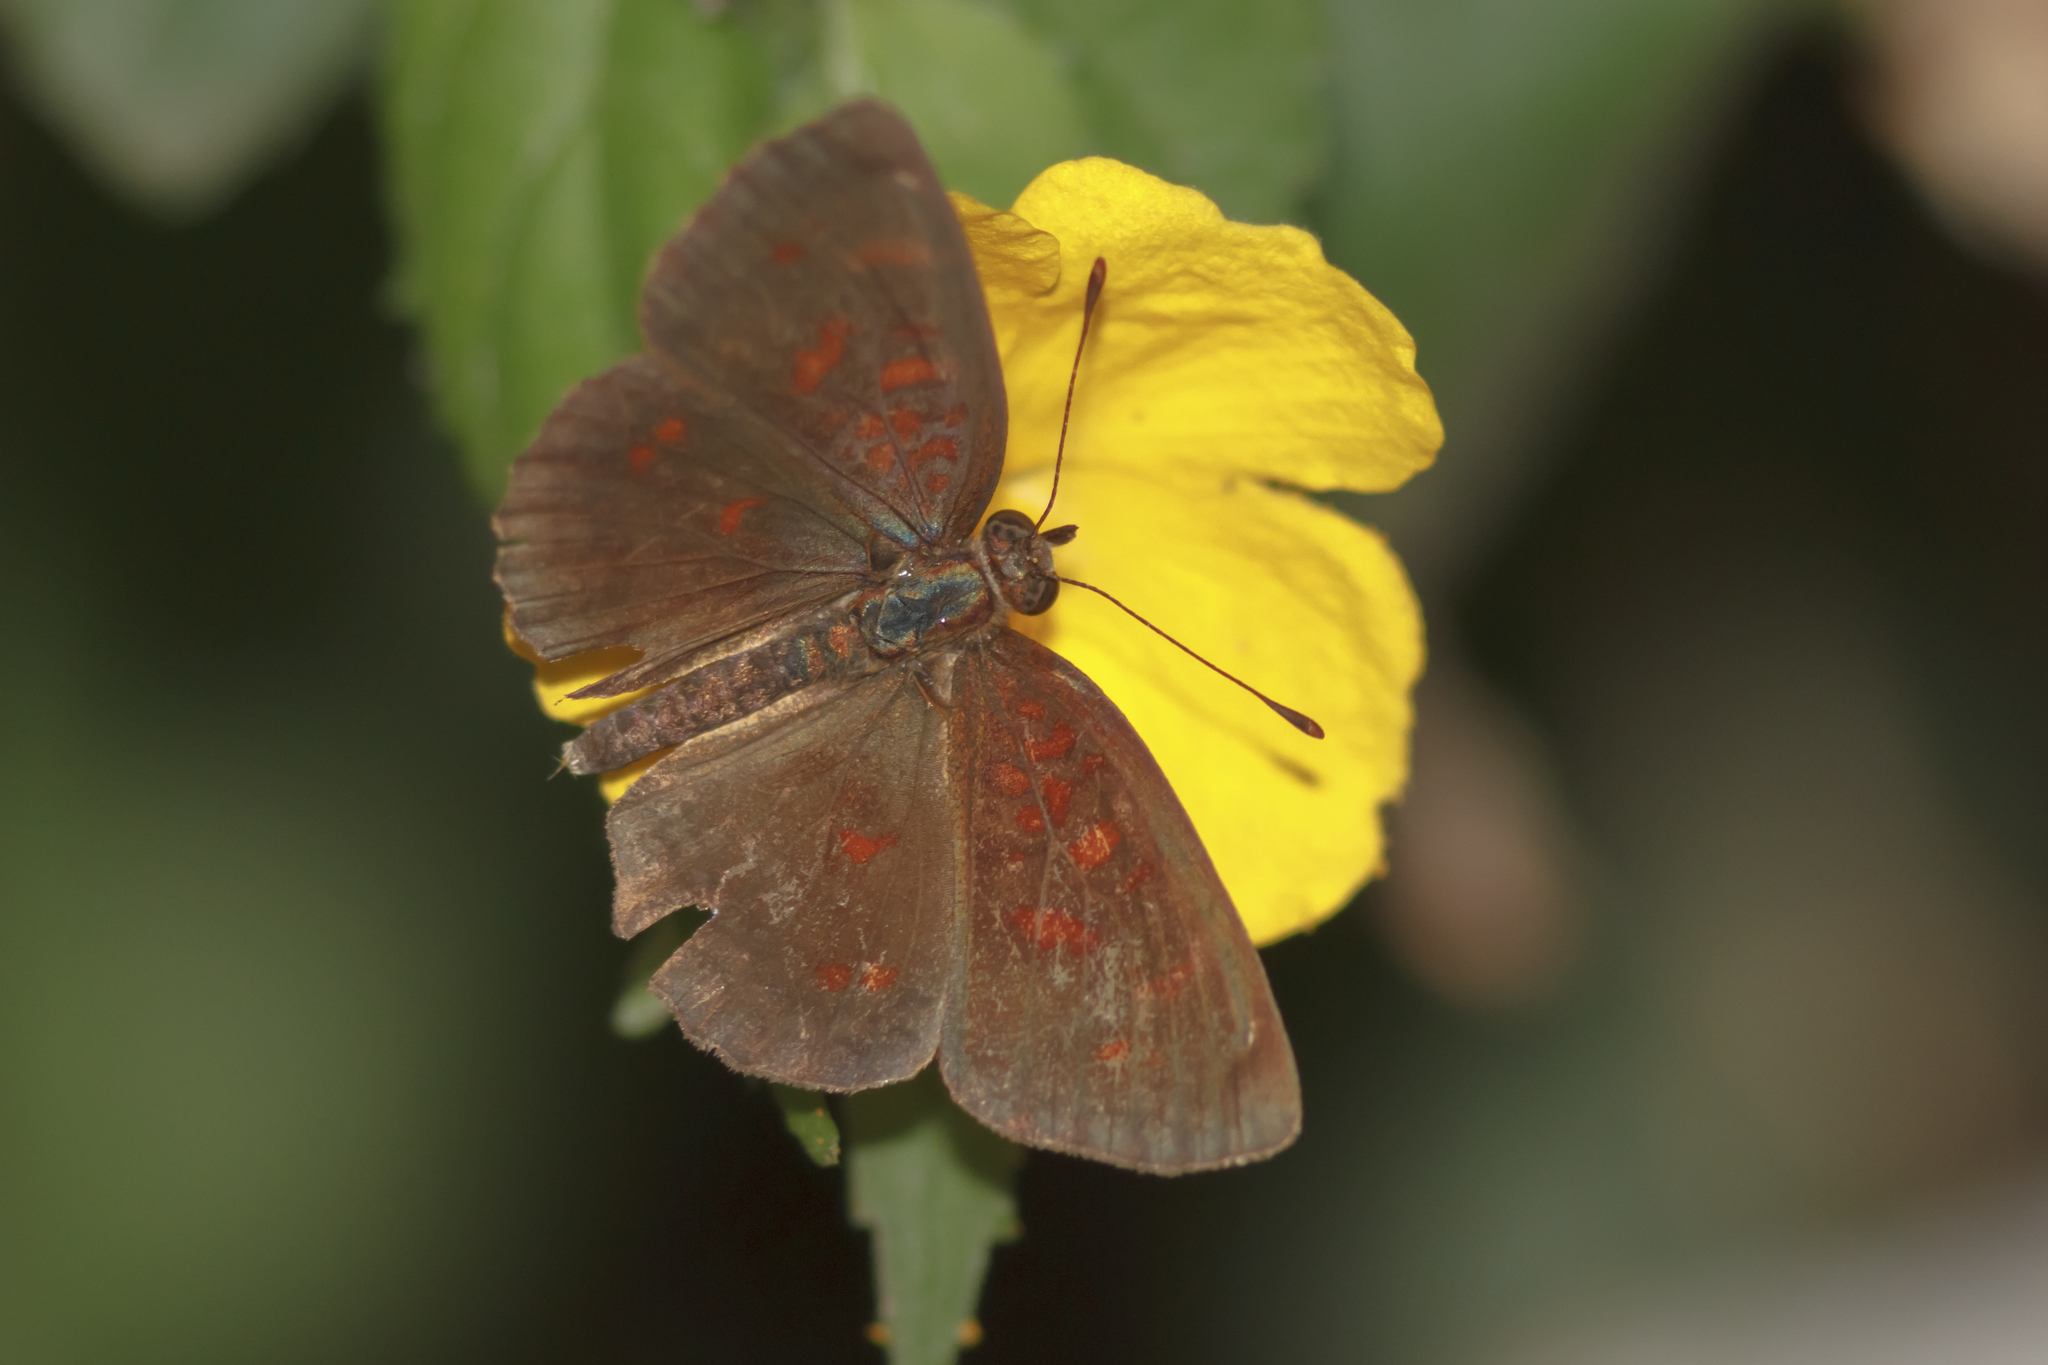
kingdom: Animalia
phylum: Arthropoda
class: Insecta
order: Lepidoptera
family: Nymphalidae
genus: Ortilia
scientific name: Ortilia velica
